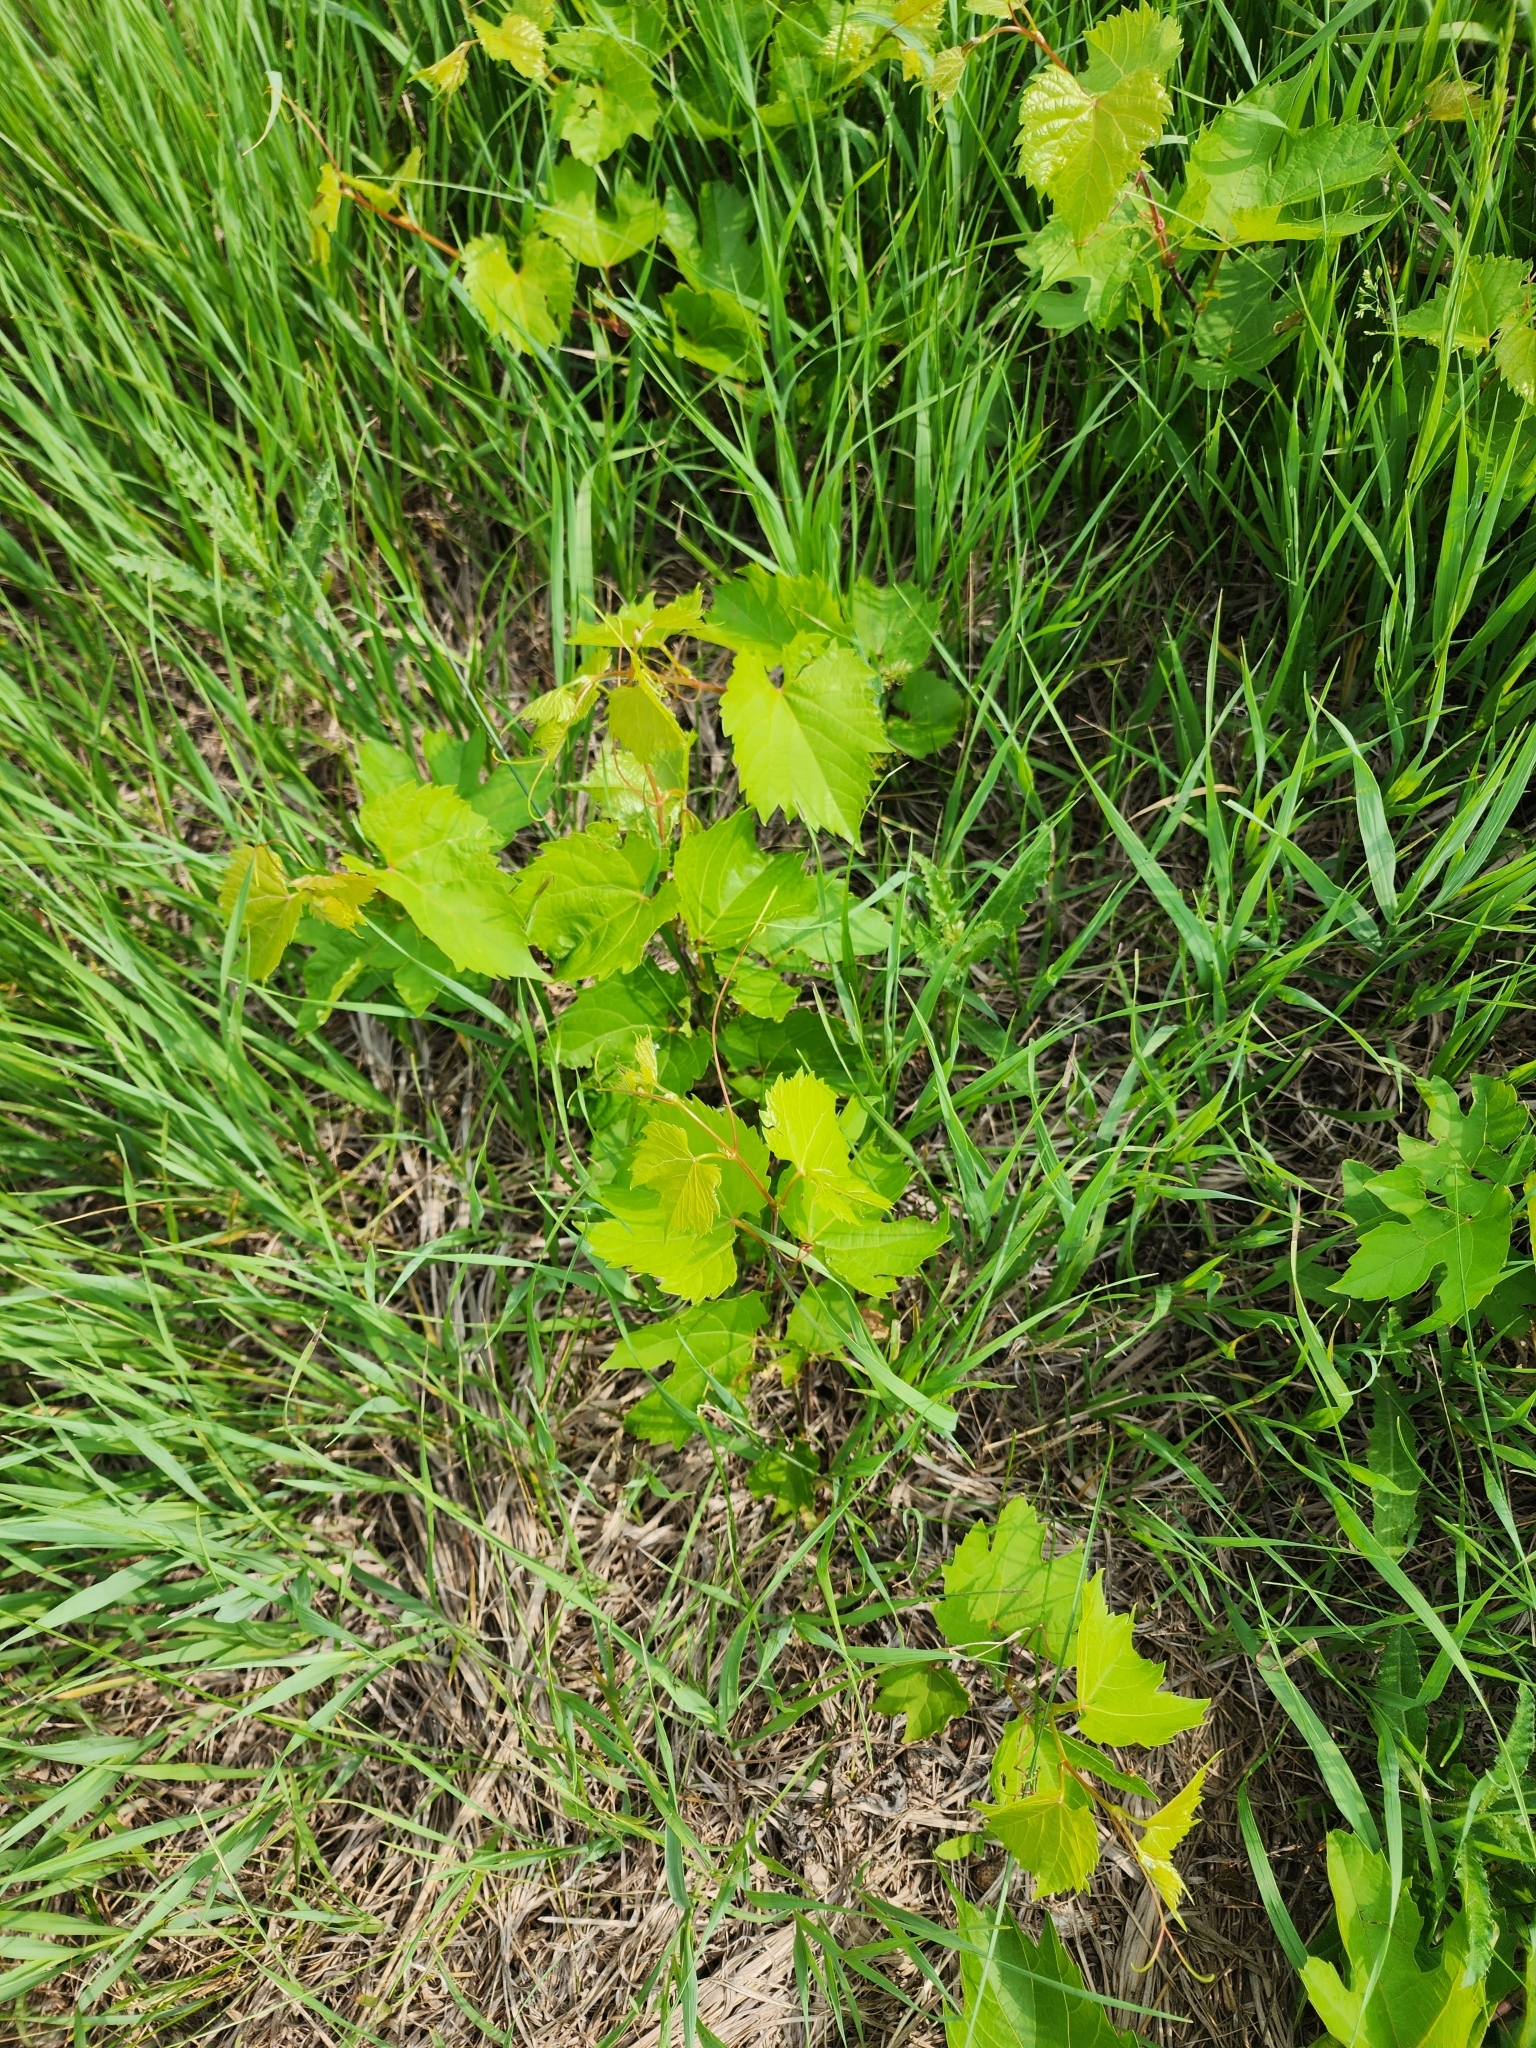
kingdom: Plantae
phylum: Tracheophyta
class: Magnoliopsida
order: Vitales
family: Vitaceae
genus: Vitis
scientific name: Vitis riparia
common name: Frost grape
